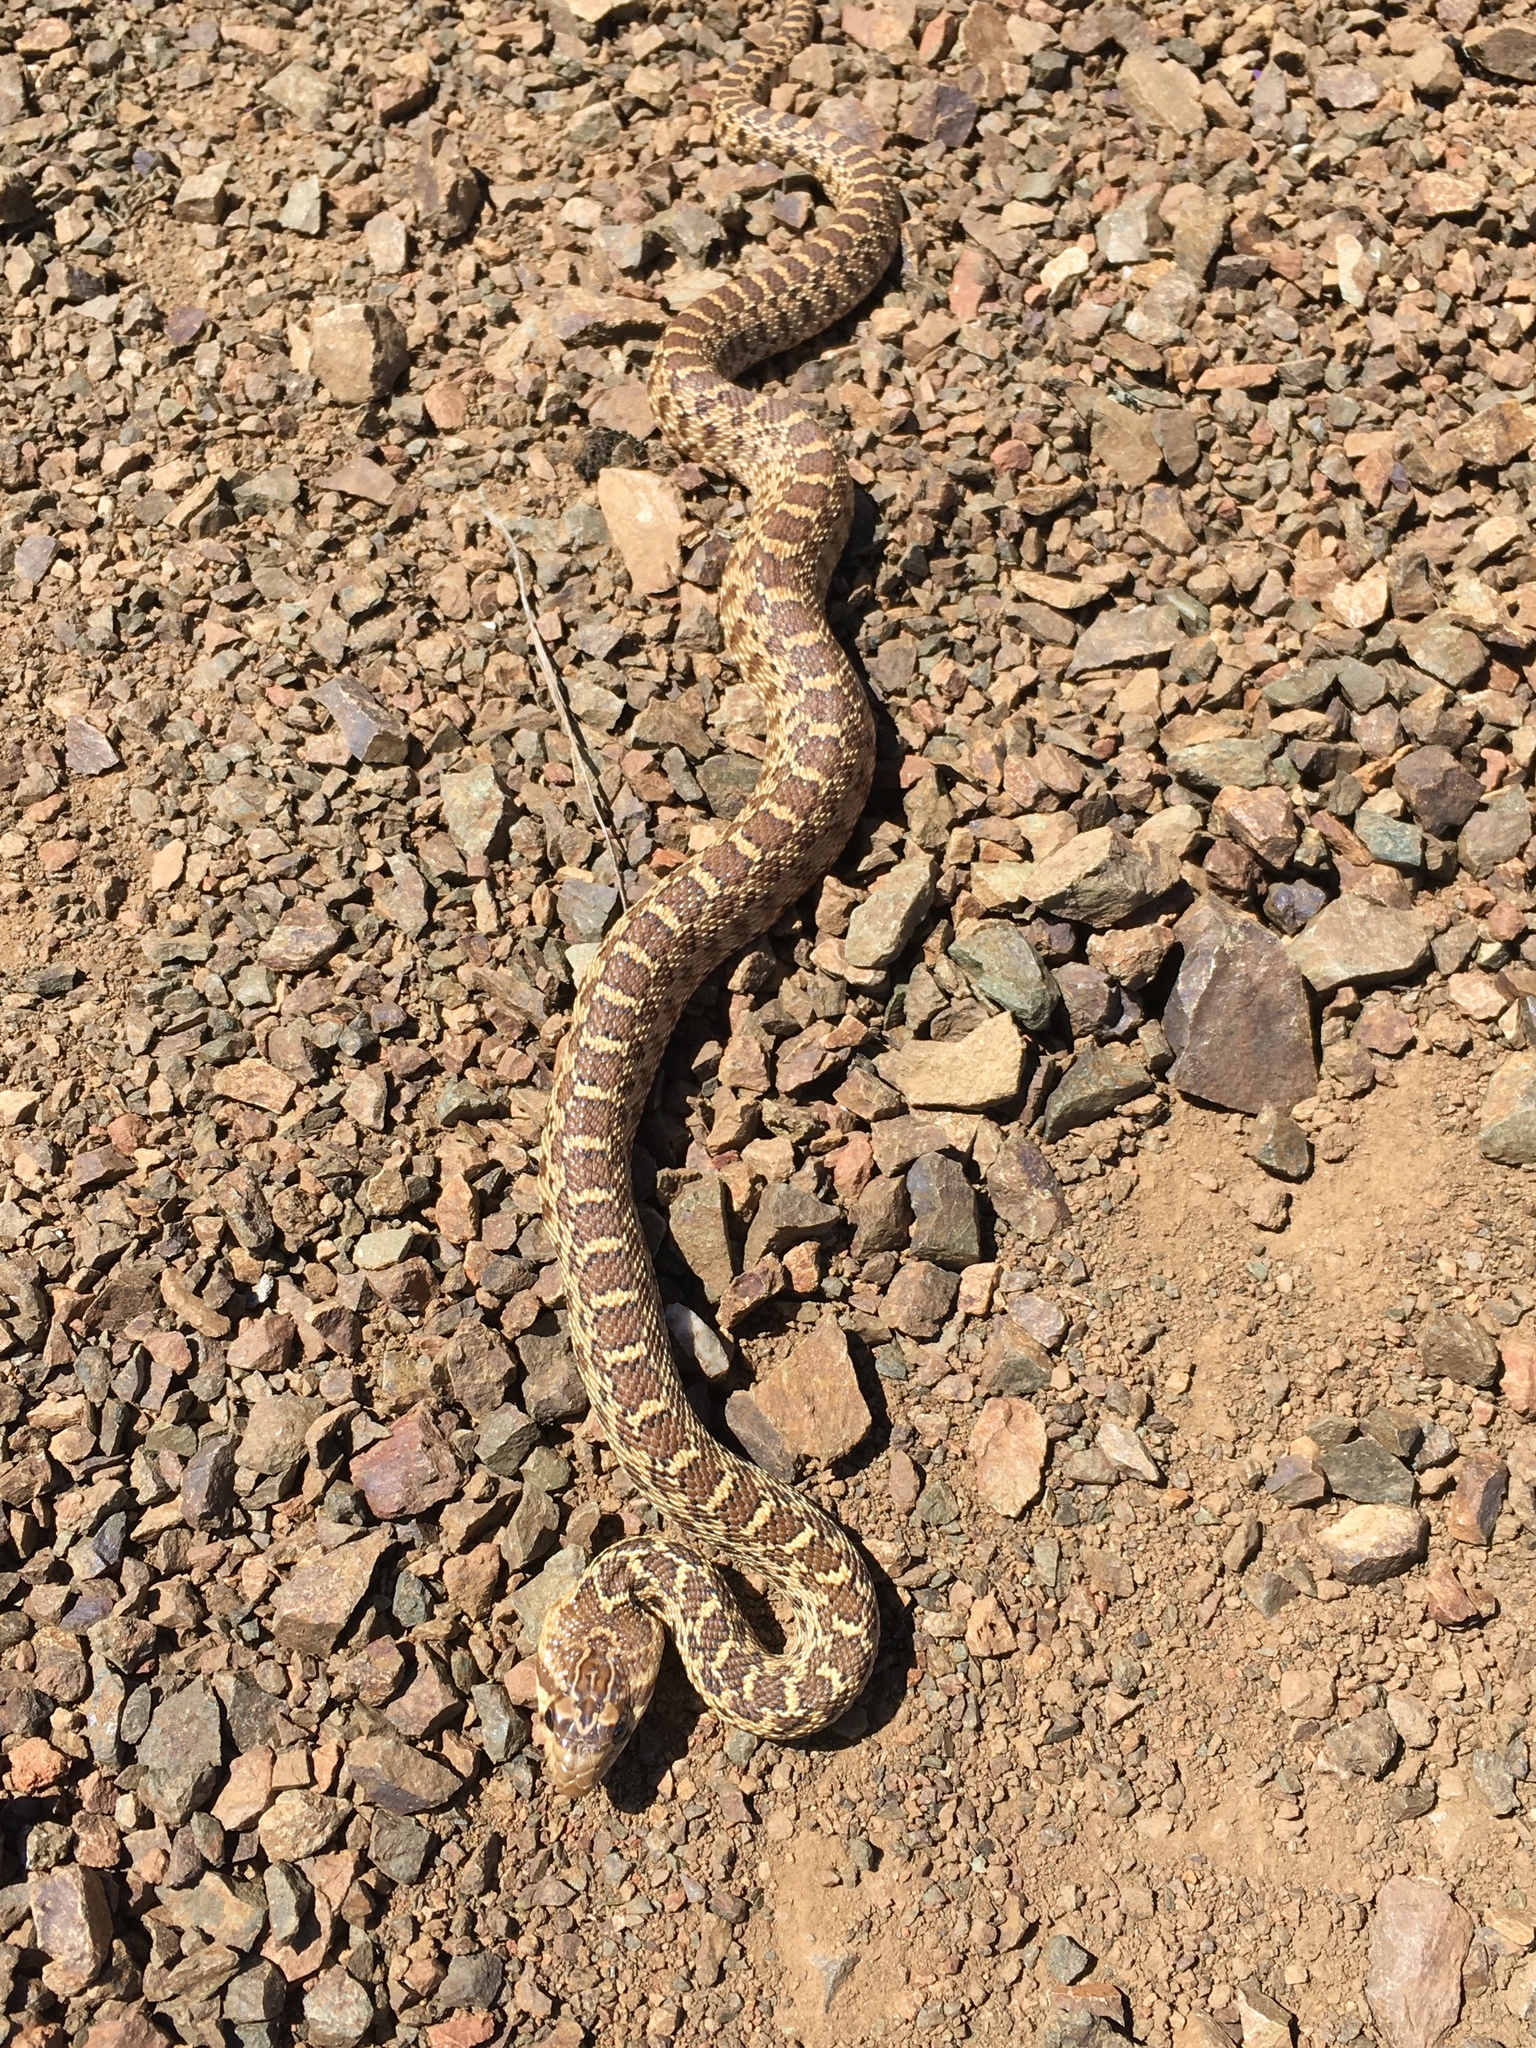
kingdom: Animalia
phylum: Chordata
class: Squamata
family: Colubridae
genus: Pituophis
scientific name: Pituophis catenifer
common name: Gopher snake
